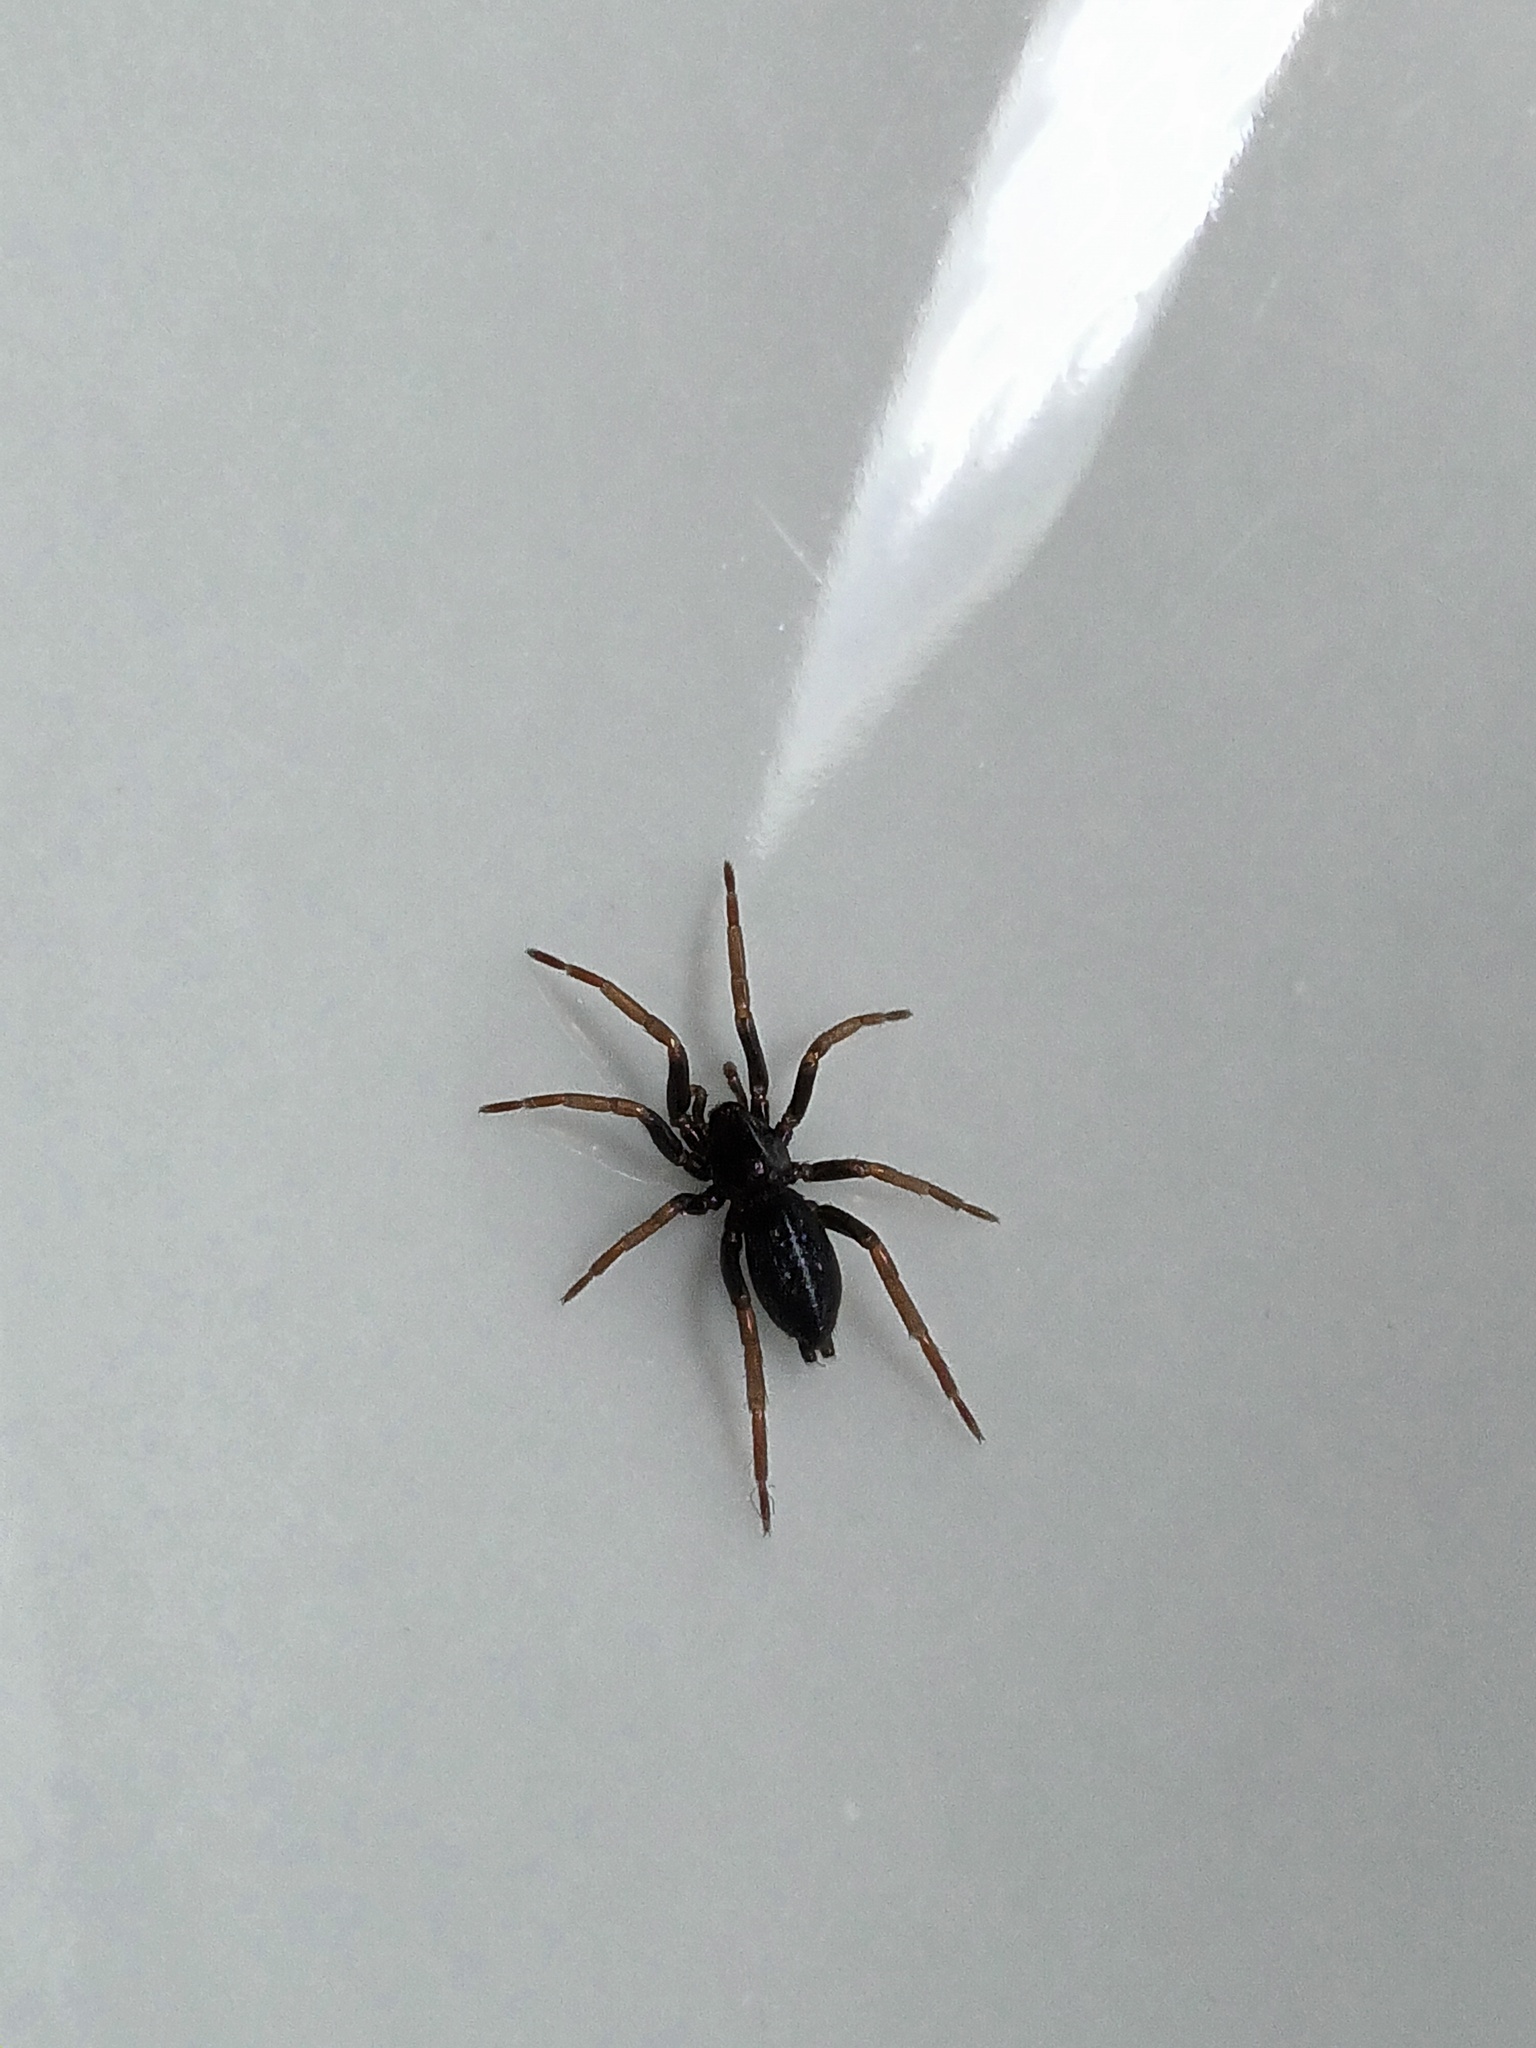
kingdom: Animalia
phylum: Arthropoda
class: Arachnida
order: Araneae
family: Gnaphosidae
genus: Trachyzelotes
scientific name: Trachyzelotes pedestris
